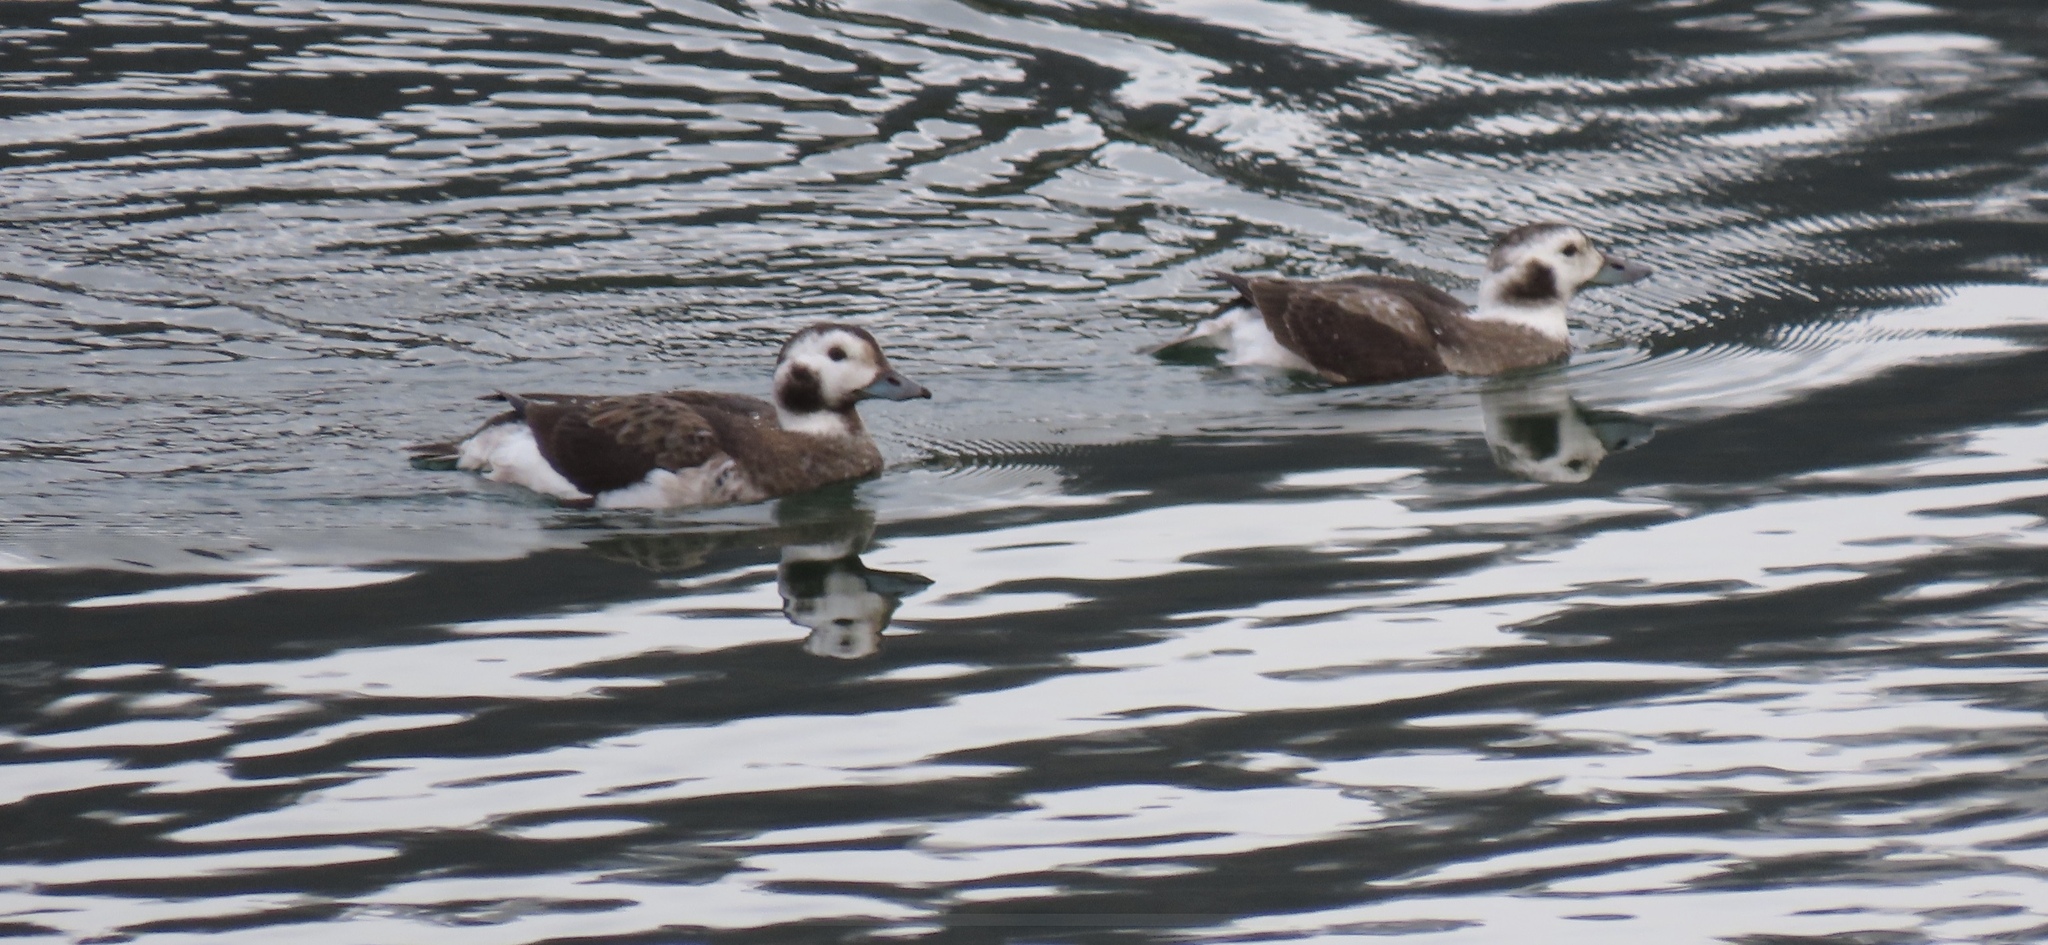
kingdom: Animalia
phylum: Chordata
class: Aves
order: Anseriformes
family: Anatidae
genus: Clangula
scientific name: Clangula hyemalis
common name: Long-tailed duck
